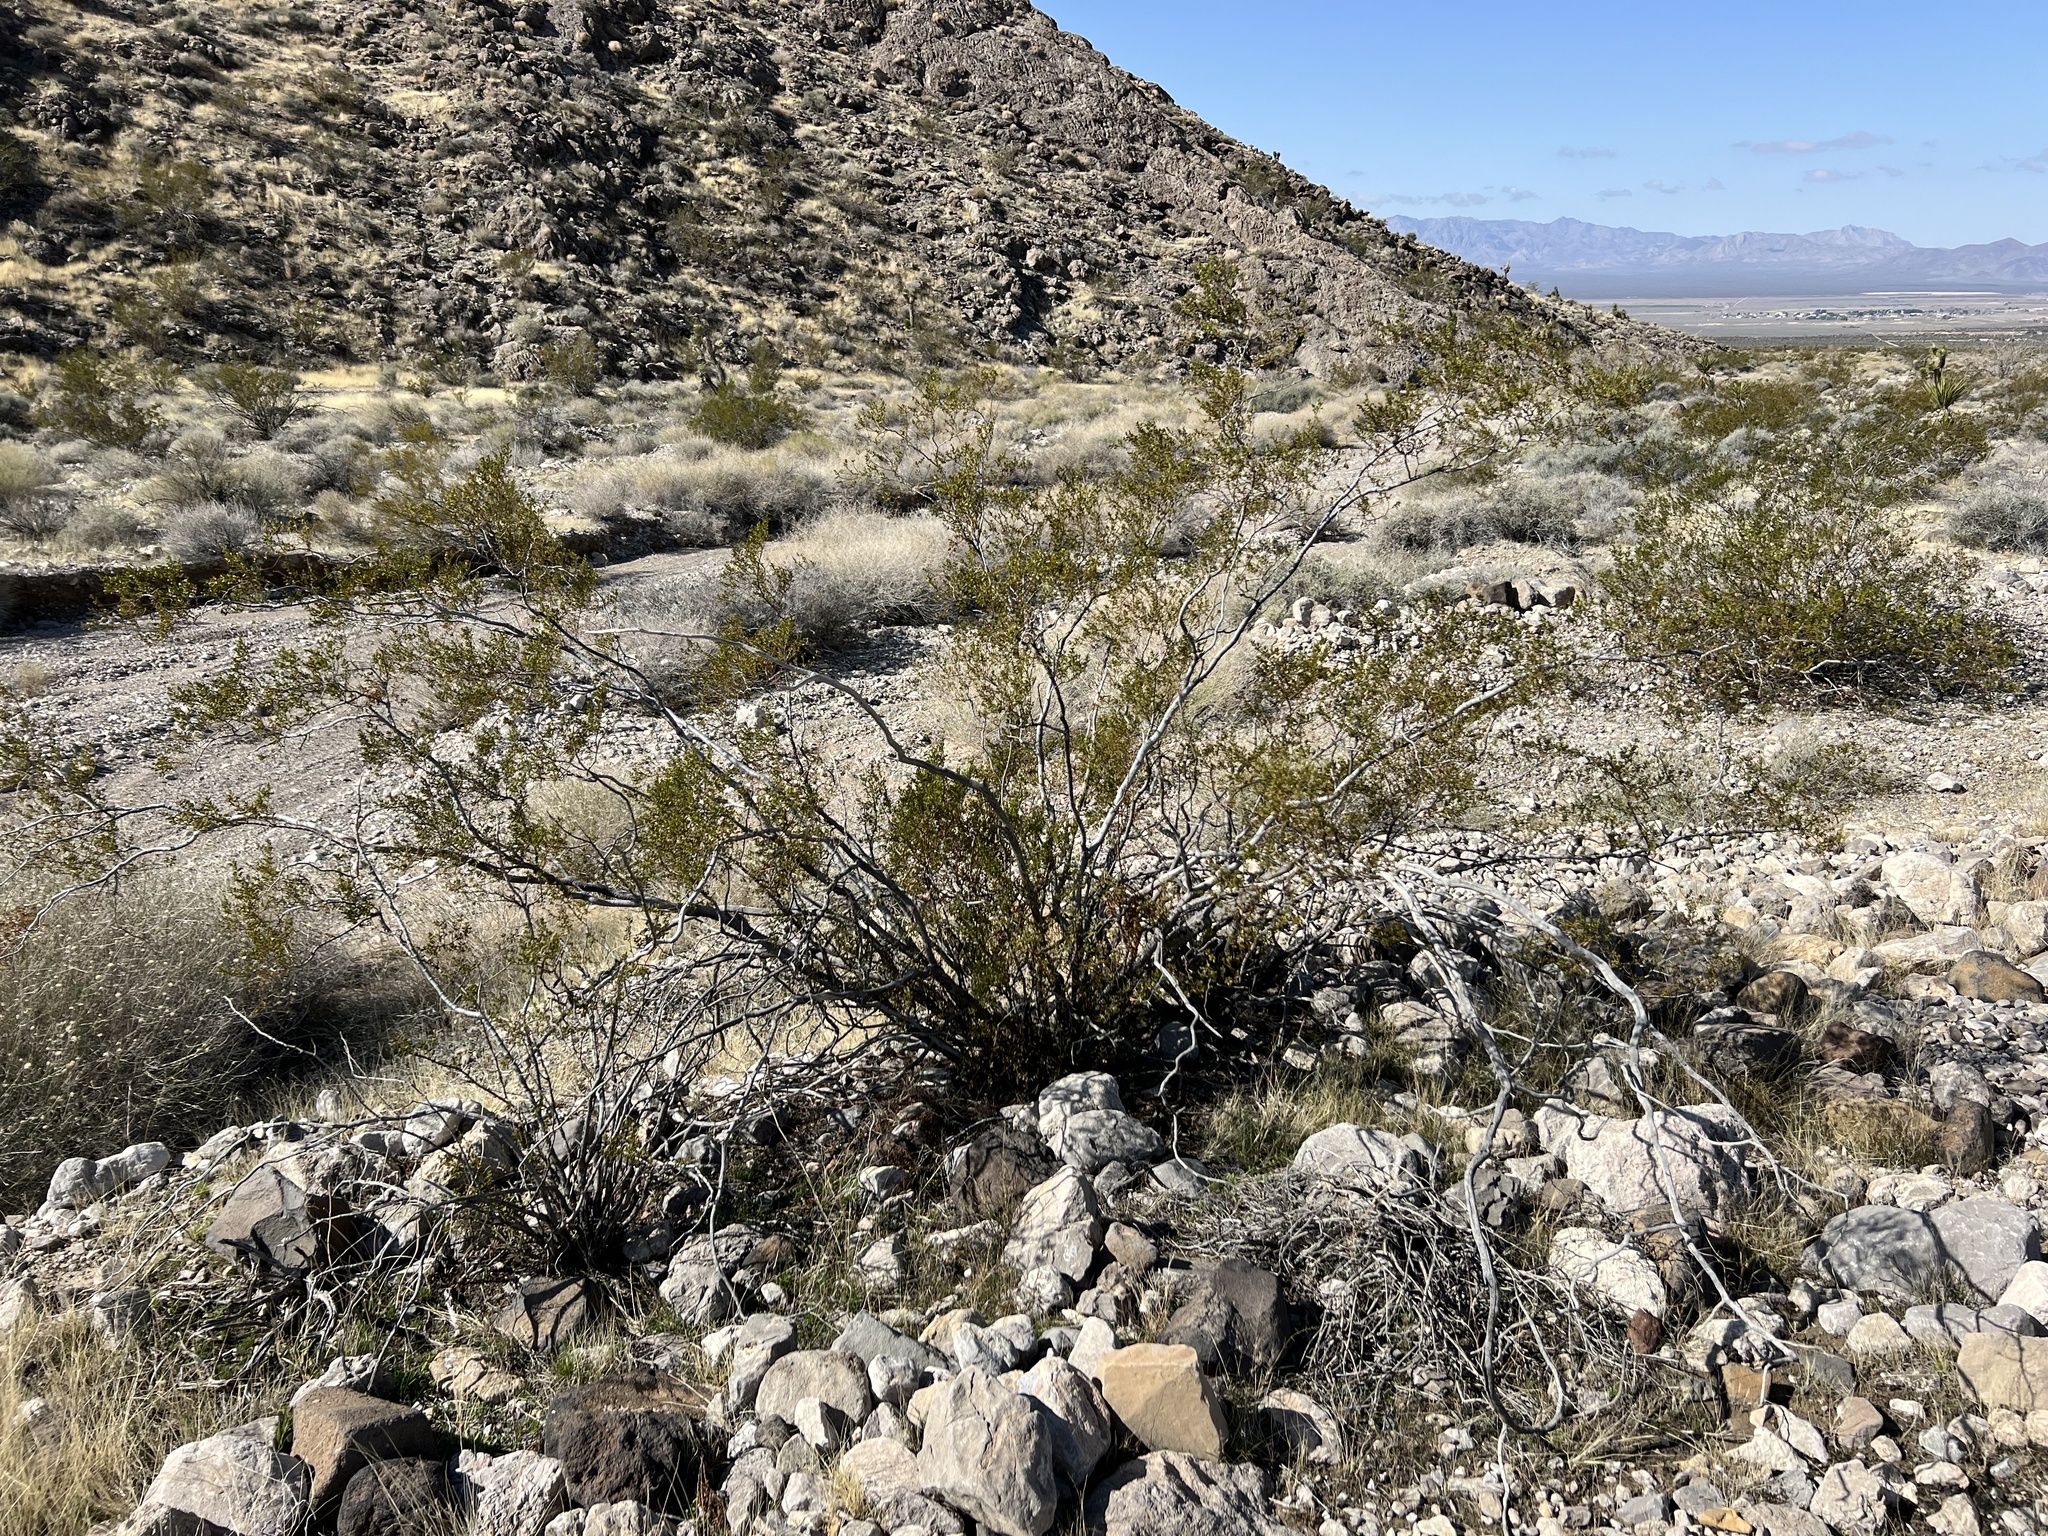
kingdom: Plantae
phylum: Tracheophyta
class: Magnoliopsida
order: Zygophyllales
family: Zygophyllaceae
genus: Larrea
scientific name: Larrea tridentata
